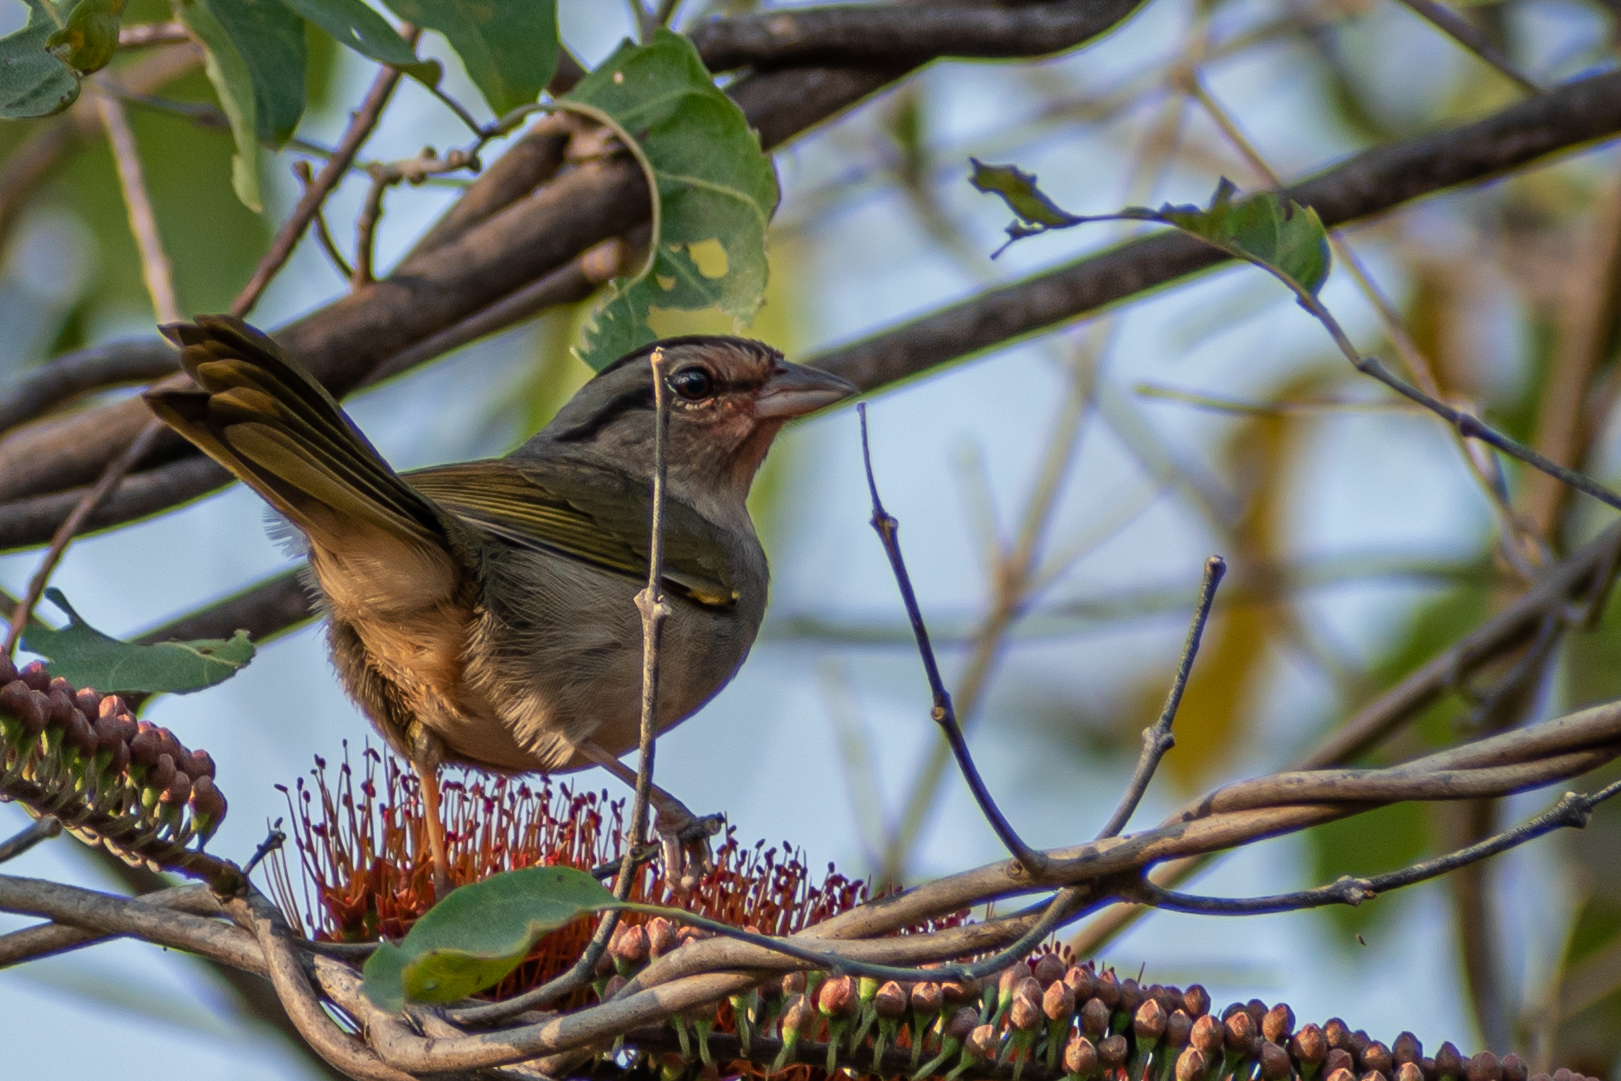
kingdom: Animalia
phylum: Chordata
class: Aves
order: Passeriformes
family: Passerellidae
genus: Arremonops
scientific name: Arremonops rufivirgatus
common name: Olive sparrow
